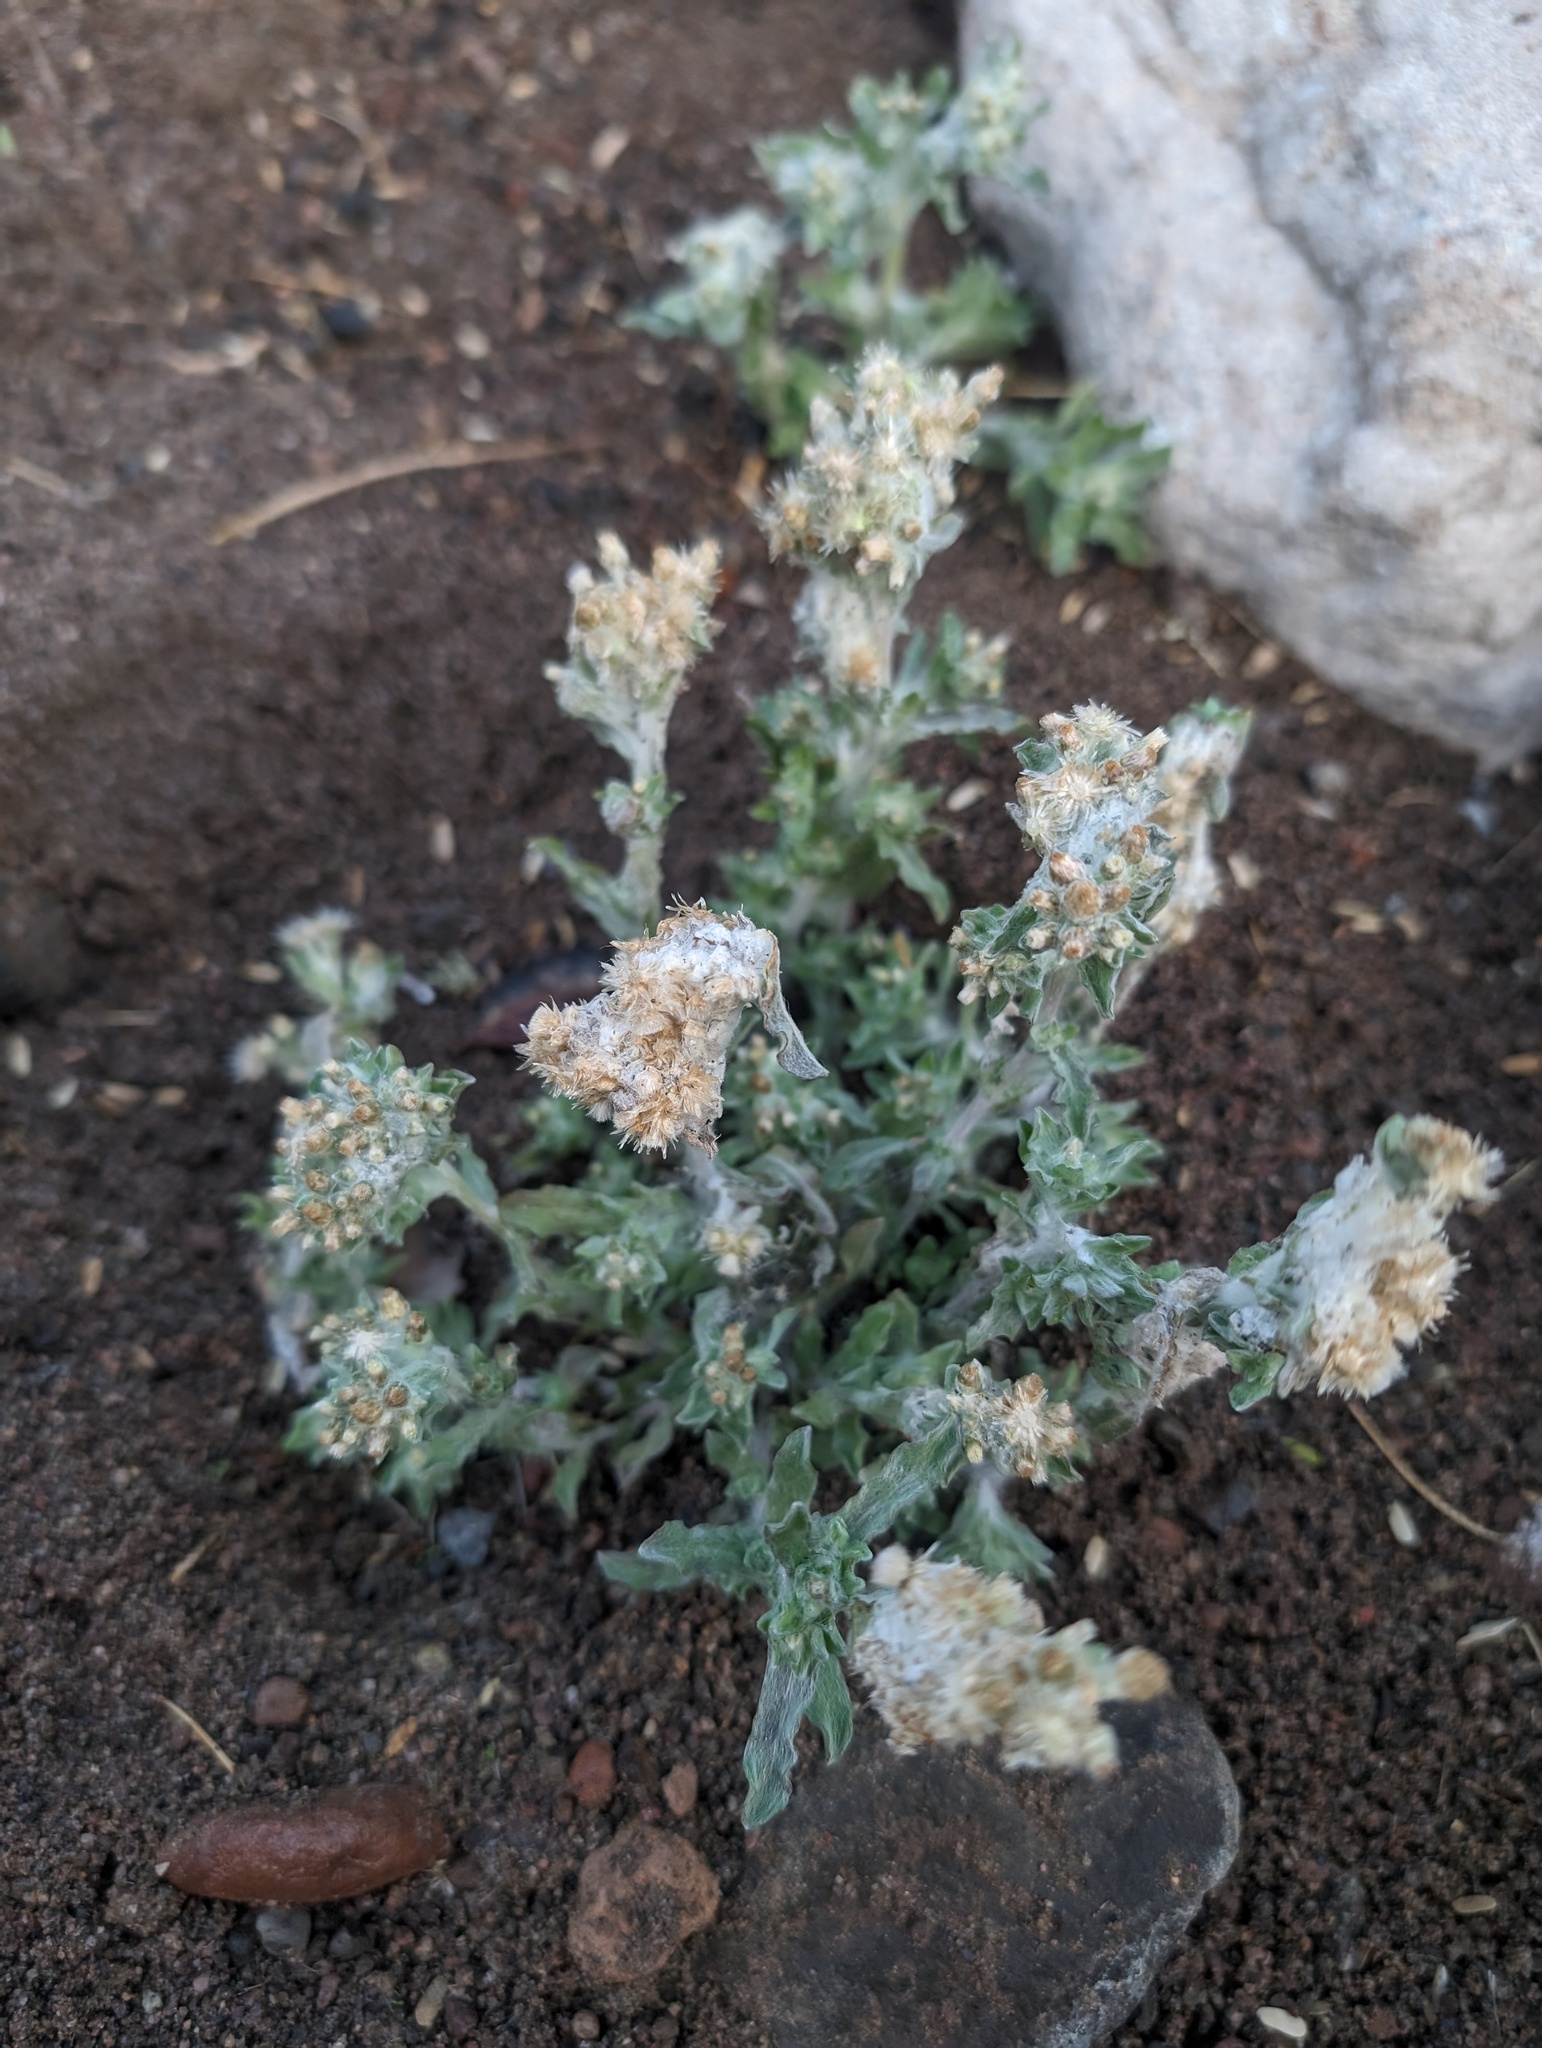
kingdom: Plantae
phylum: Tracheophyta
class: Magnoliopsida
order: Asterales
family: Asteraceae
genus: Gnaphalium
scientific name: Gnaphalium palustre
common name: Western marsh cudweed
